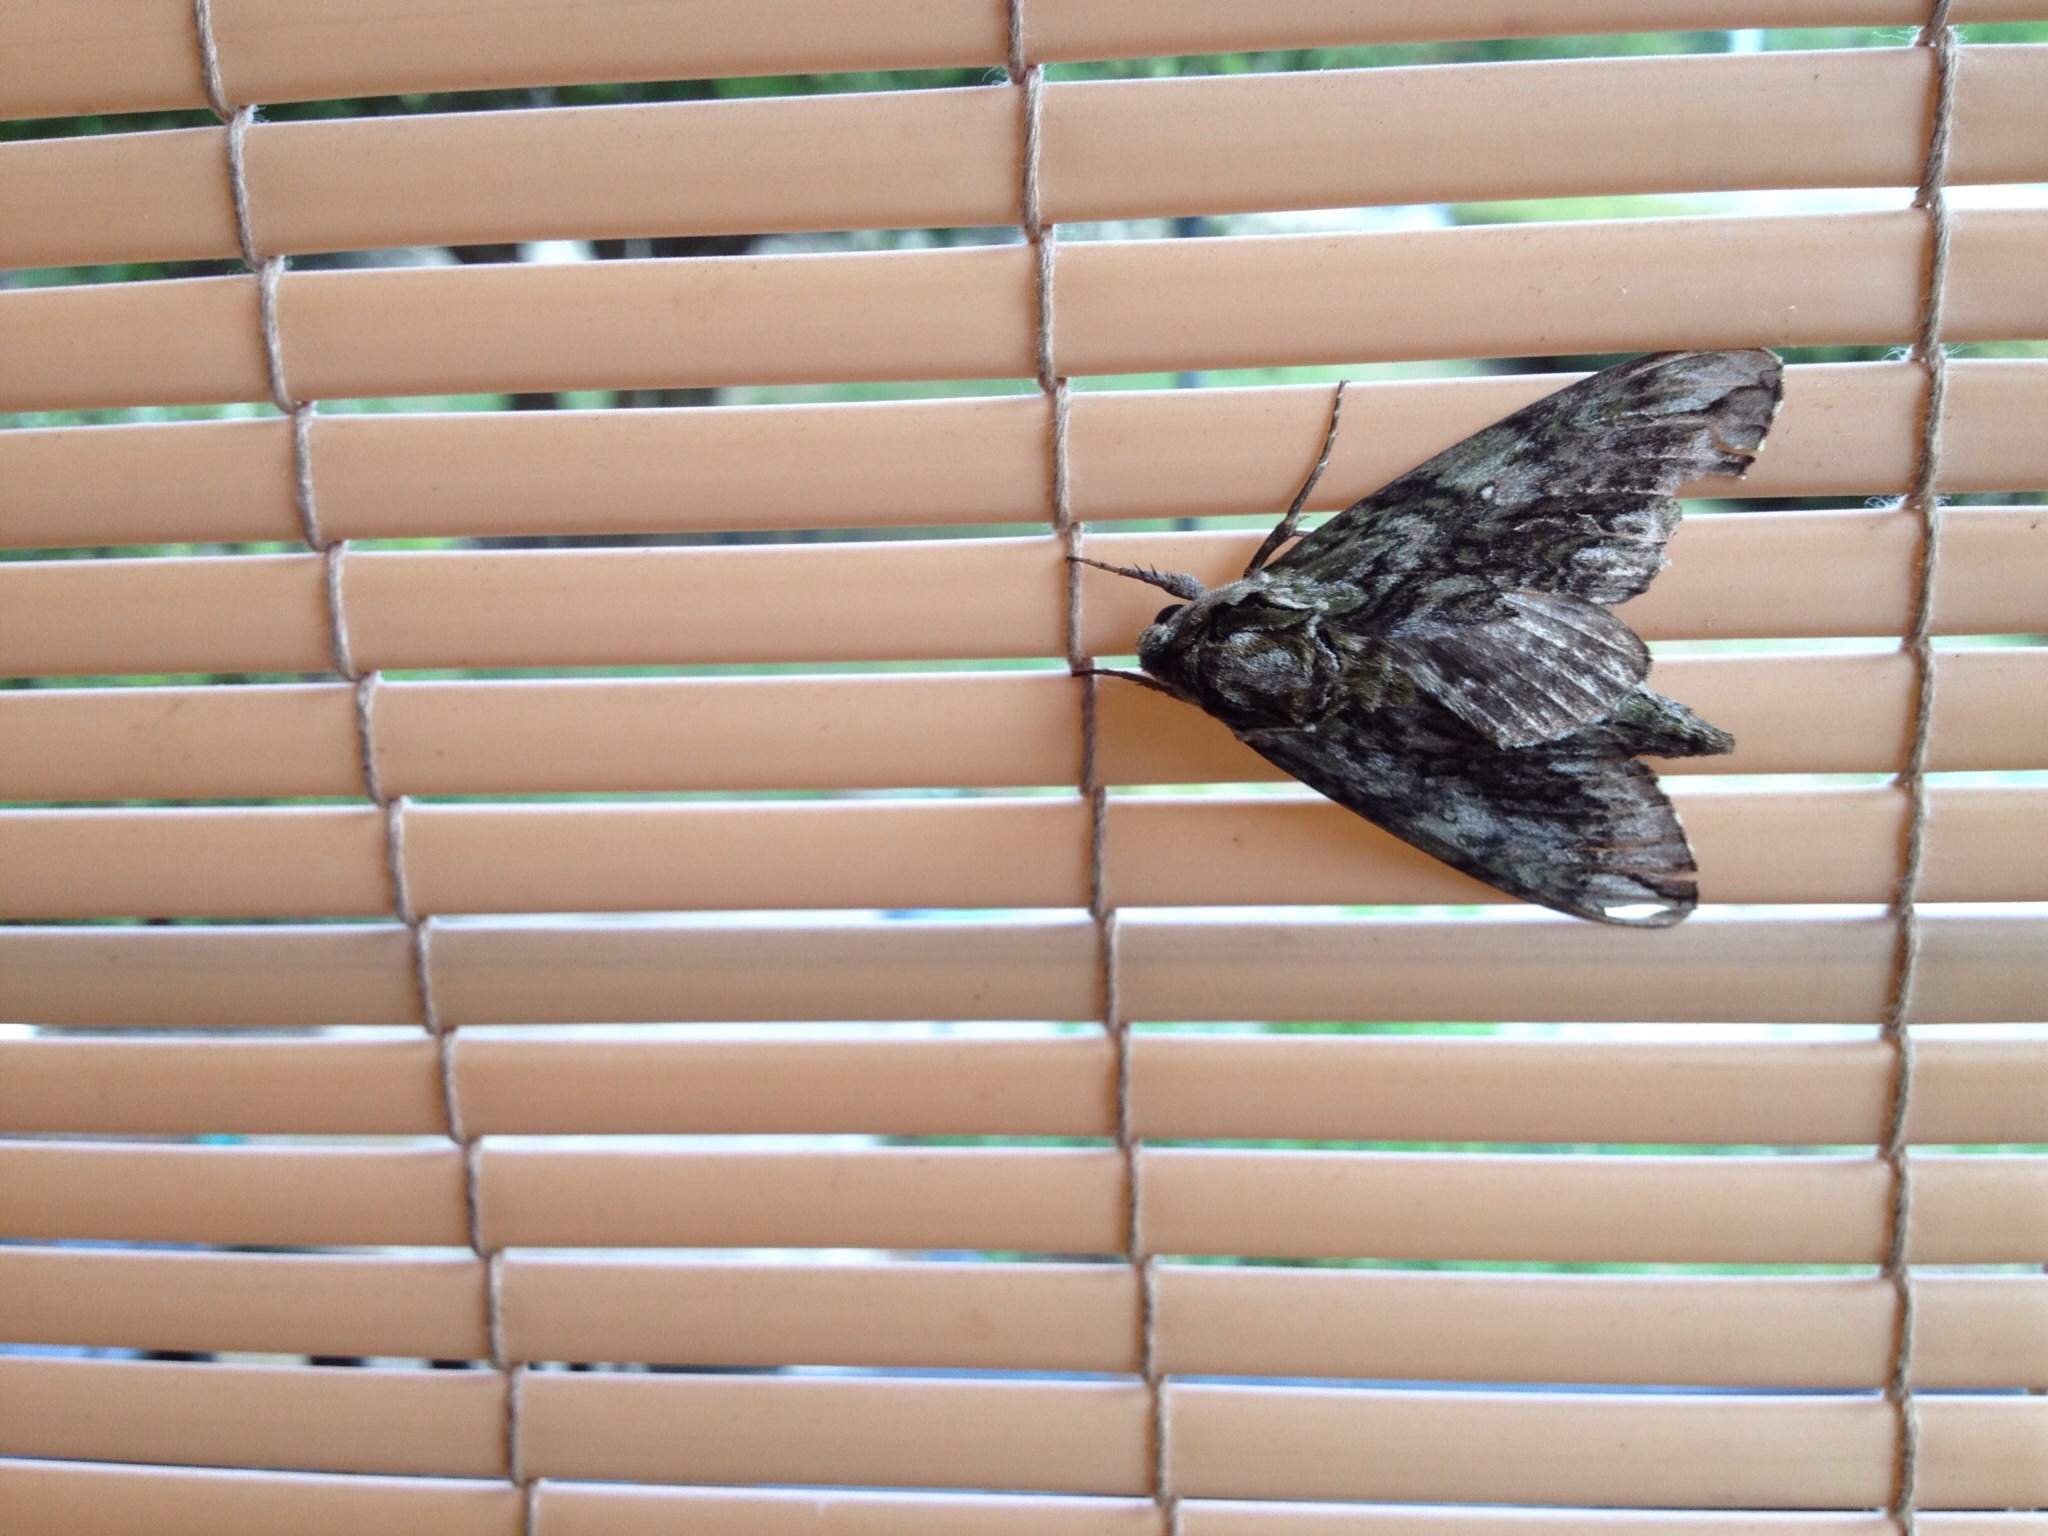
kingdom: Animalia
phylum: Arthropoda
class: Insecta
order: Lepidoptera
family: Sphingidae
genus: Ceratomia
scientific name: Ceratomia undulosa
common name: Waved sphinx
